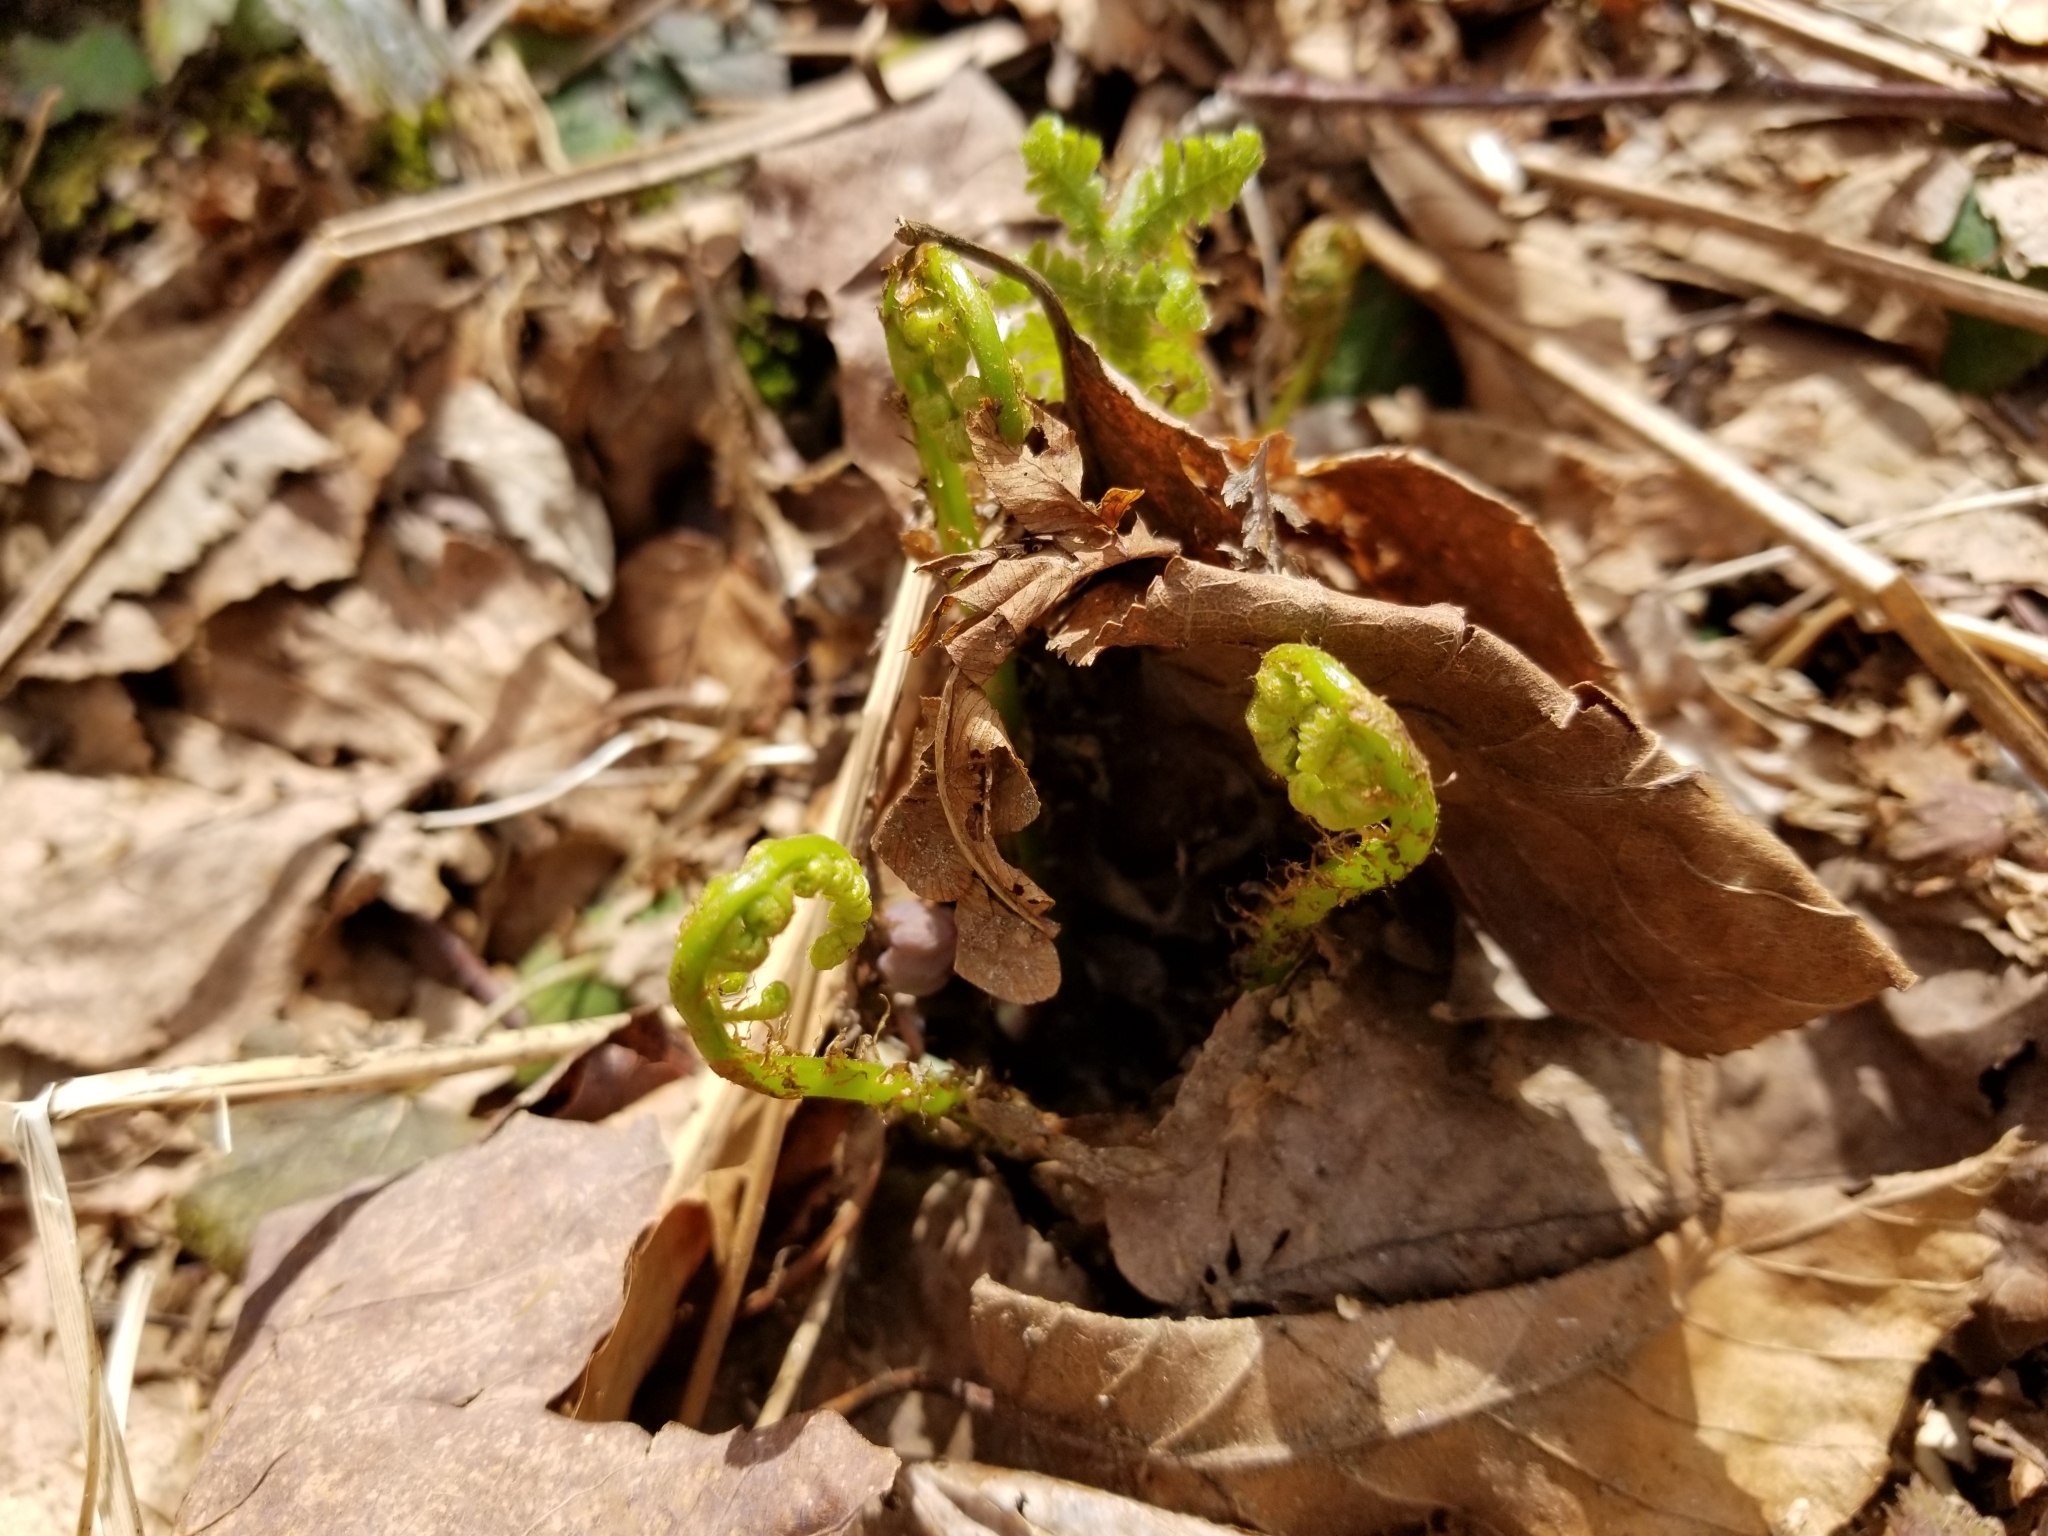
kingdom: Plantae
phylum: Tracheophyta
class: Polypodiopsida
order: Polypodiales
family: Athyriaceae
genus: Athyrium
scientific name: Athyrium angustum
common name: Northern lady fern
